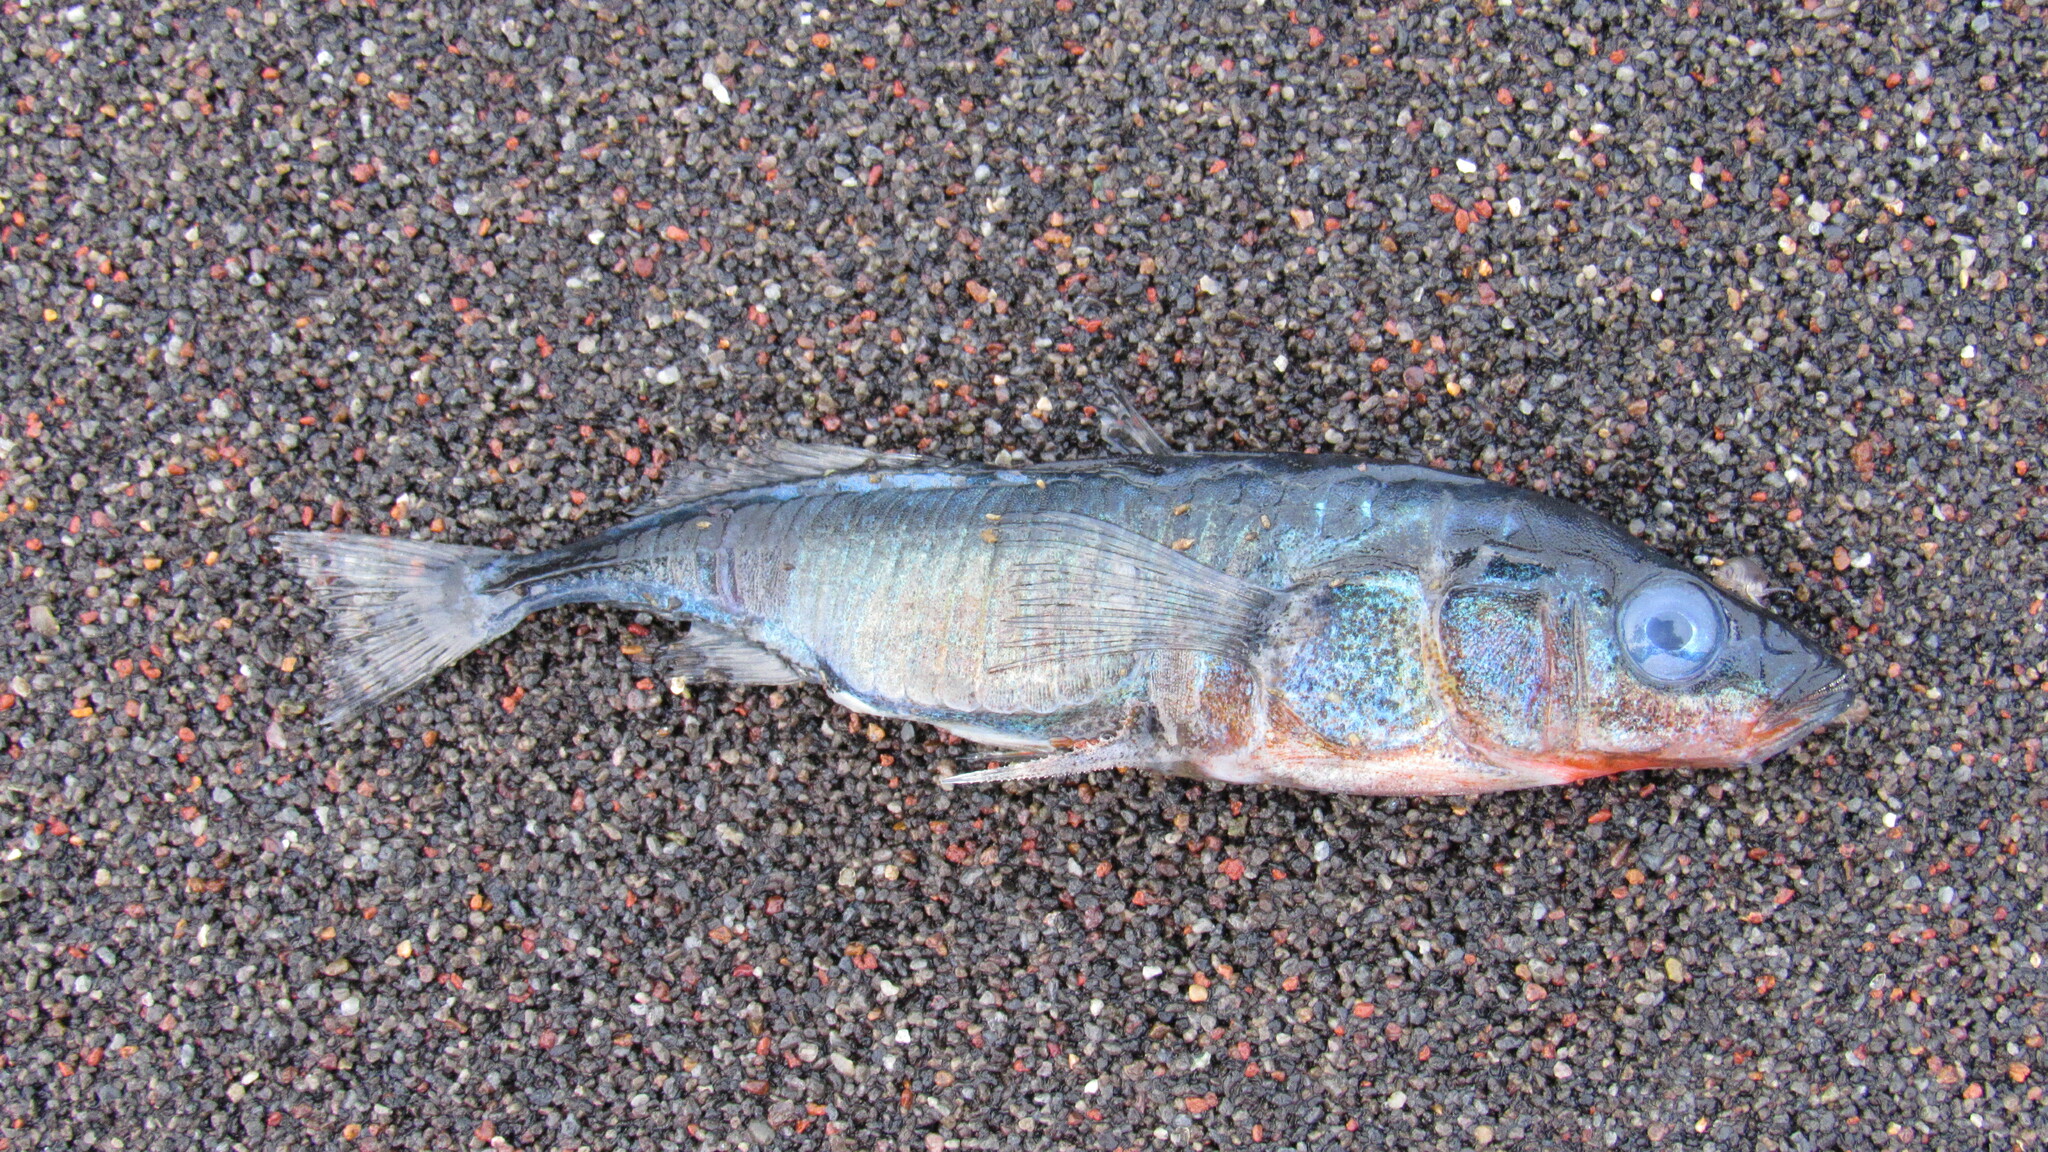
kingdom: Animalia
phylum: Chordata
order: Gasterosteiformes
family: Gasterosteidae
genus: Gasterosteus
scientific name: Gasterosteus aculeatus
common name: Three-spined stickleback
